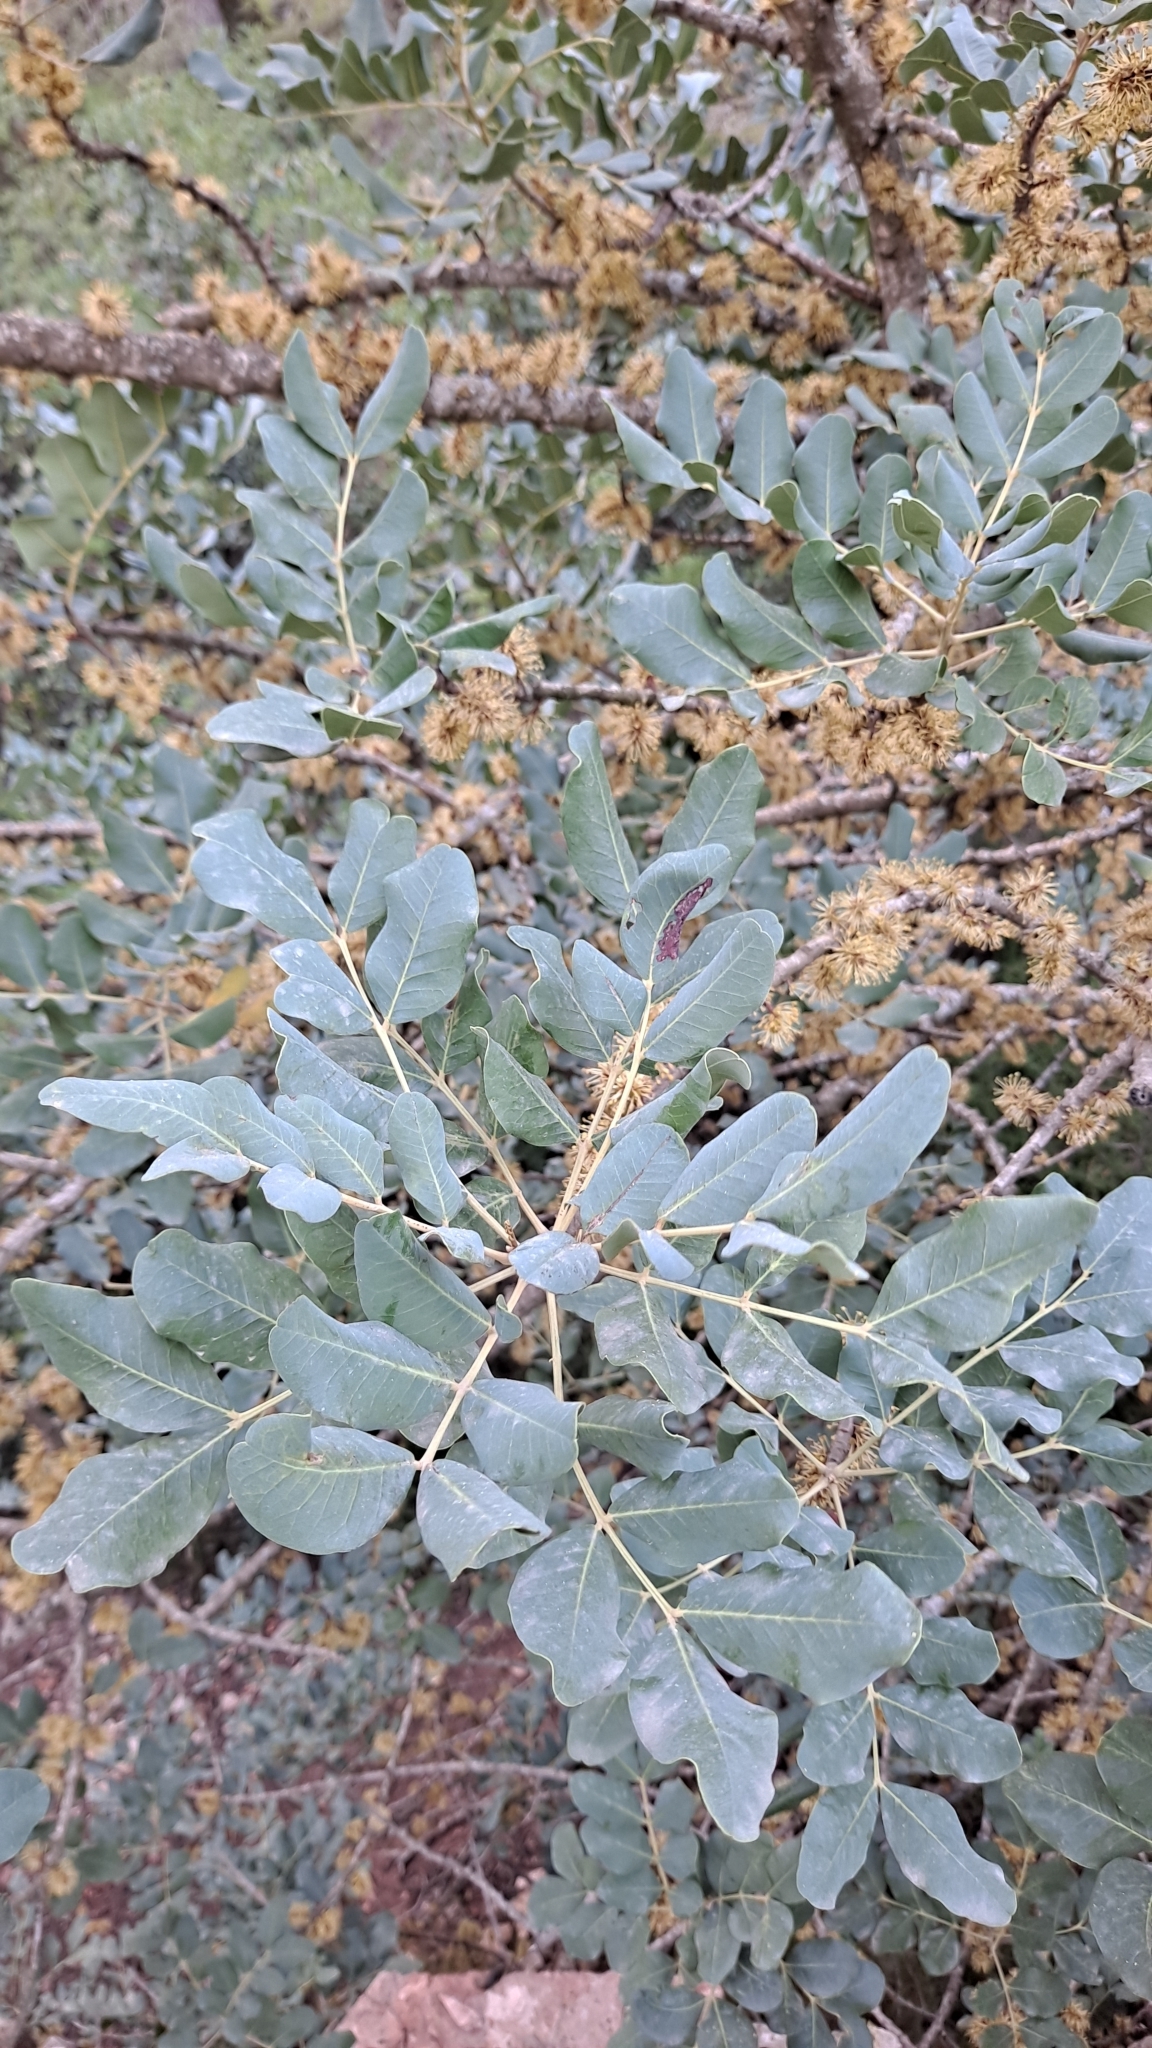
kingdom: Plantae
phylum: Tracheophyta
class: Magnoliopsida
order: Fabales
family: Fabaceae
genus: Ceratonia
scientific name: Ceratonia siliqua
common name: Carob
